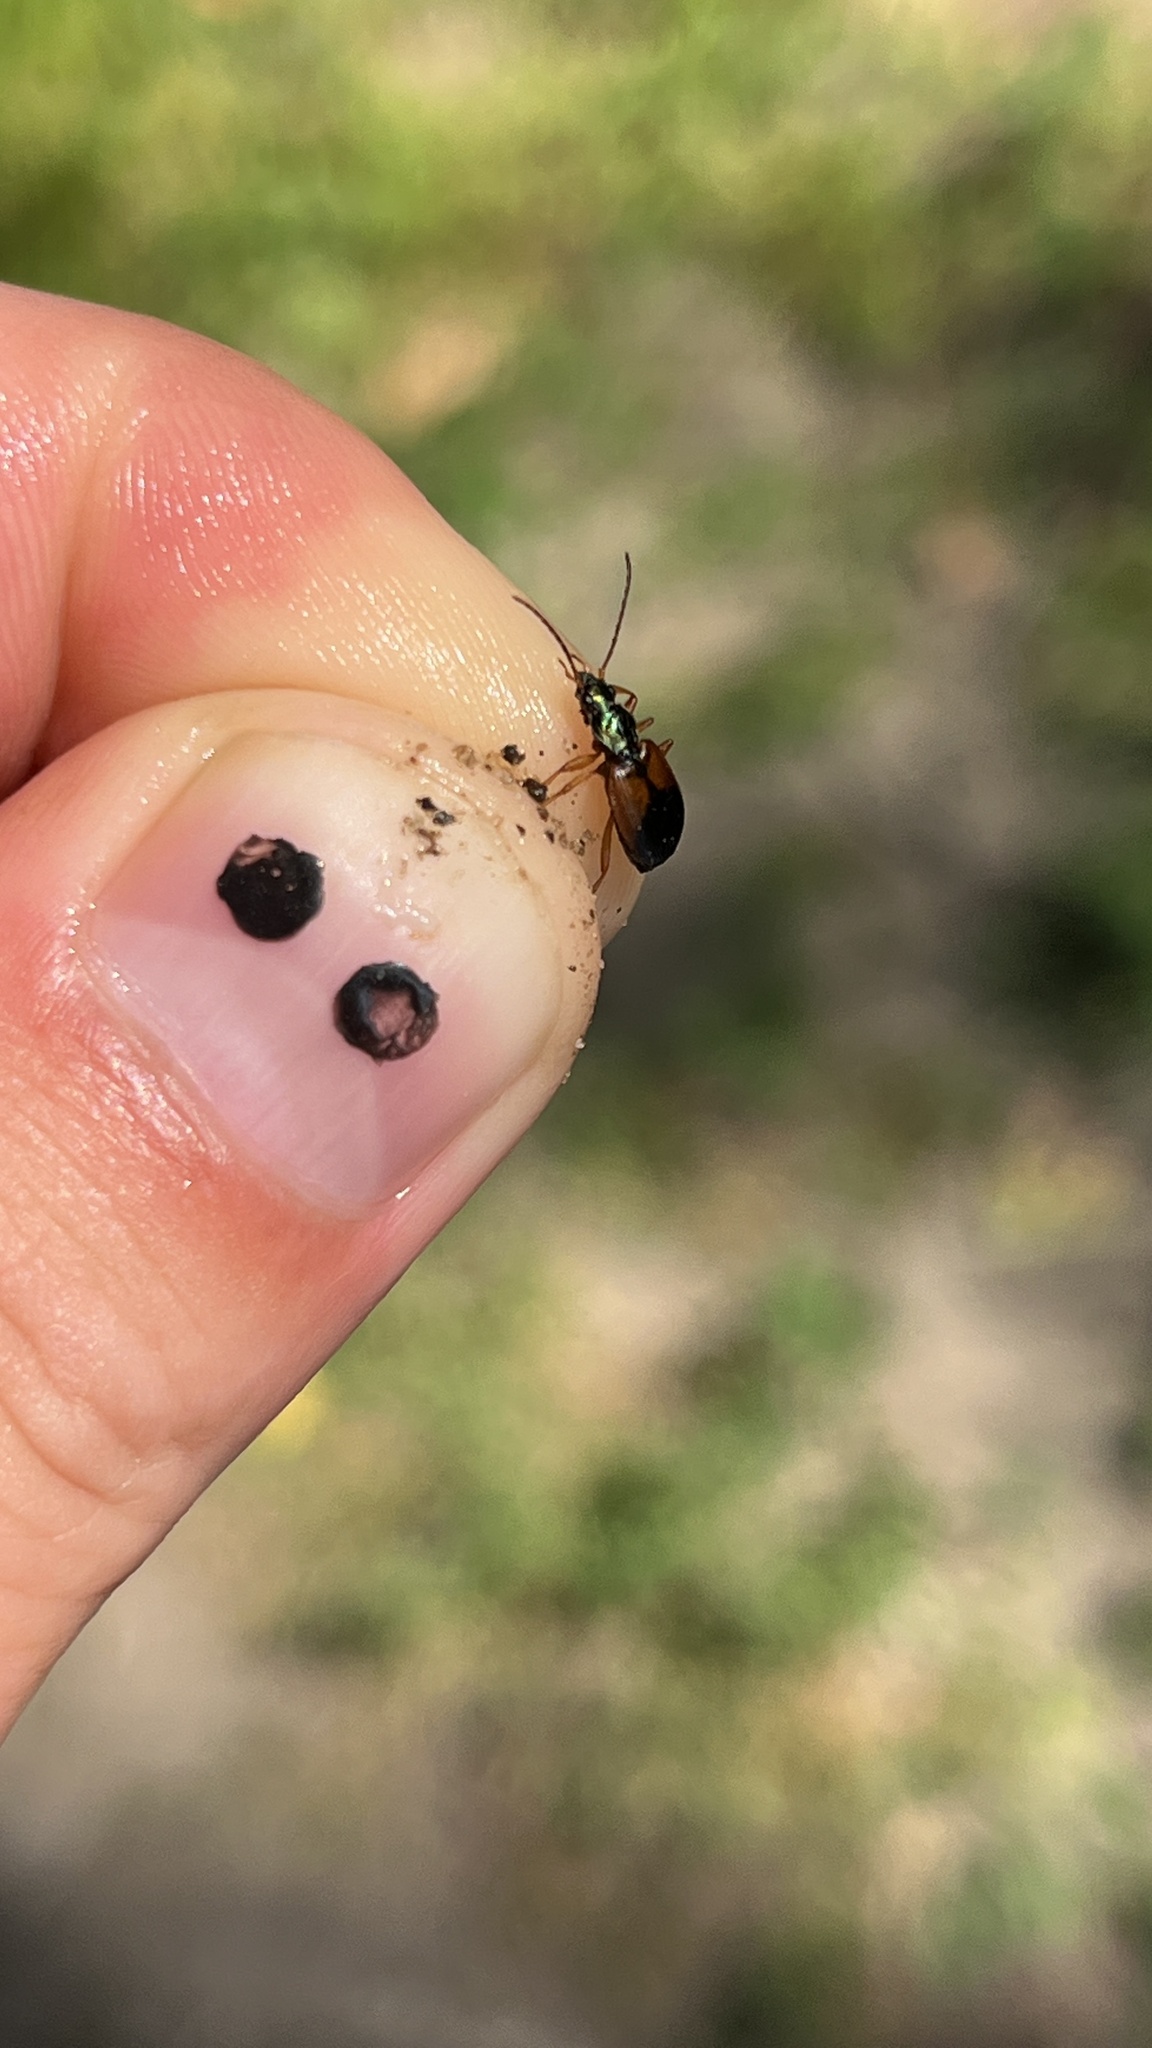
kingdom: Animalia
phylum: Arthropoda
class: Insecta
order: Coleoptera
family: Carabidae
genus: Anchomenus
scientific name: Anchomenus dorsalis
